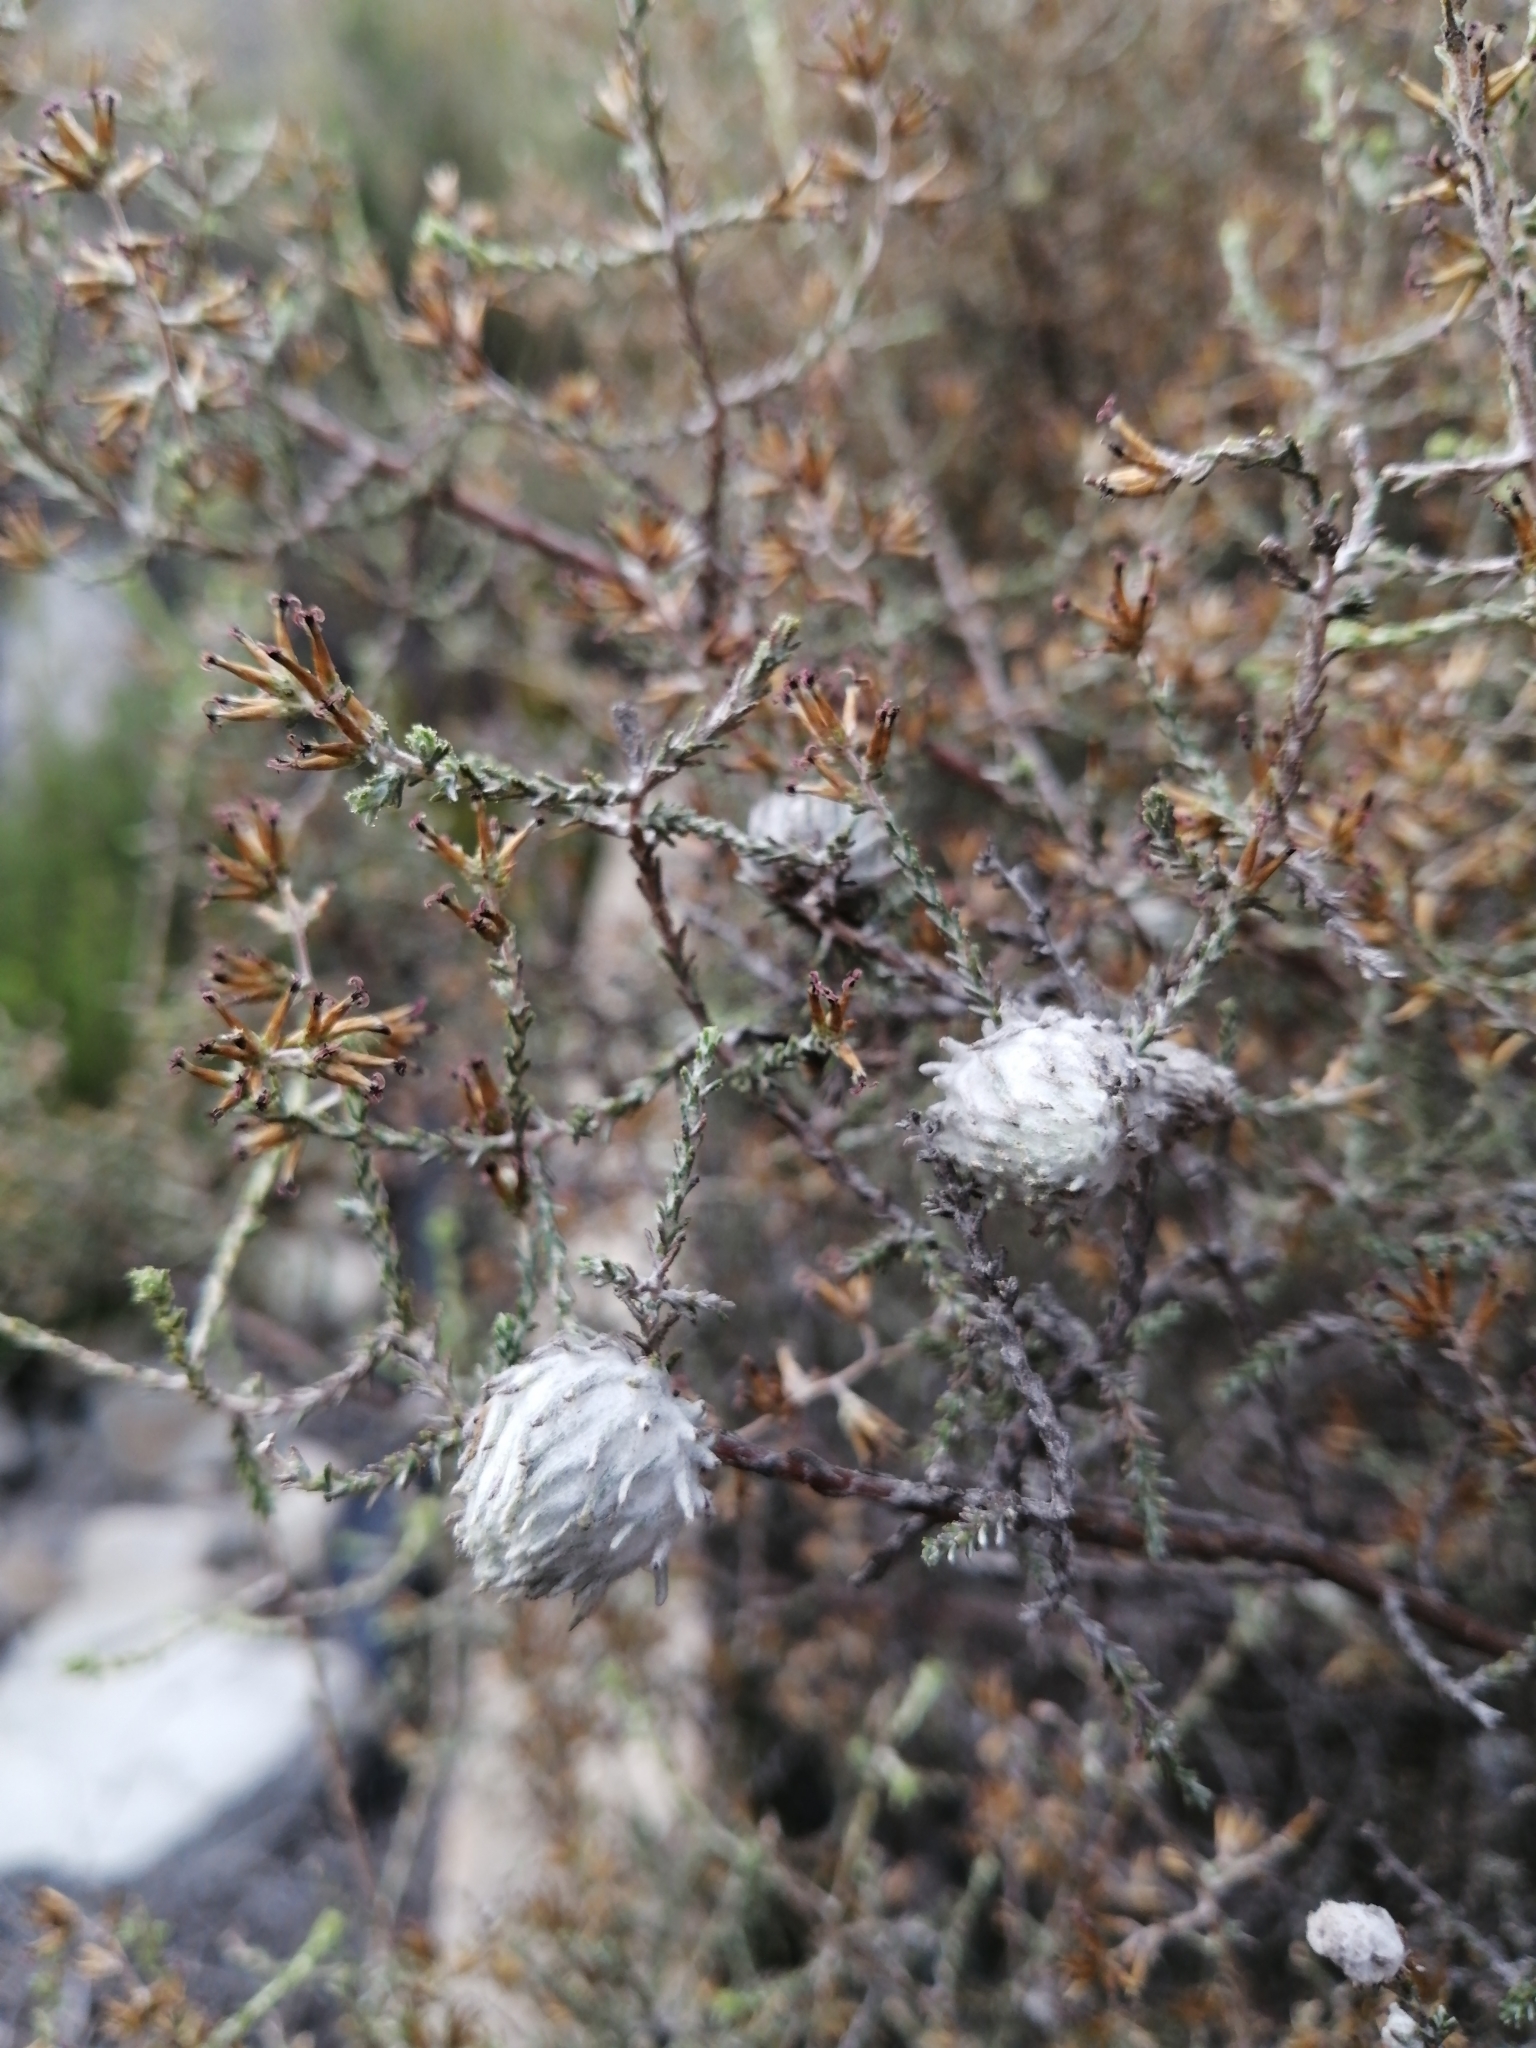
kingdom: Plantae
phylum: Tracheophyta
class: Magnoliopsida
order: Asterales
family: Asteraceae
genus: Seriphium
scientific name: Seriphium plumosum
